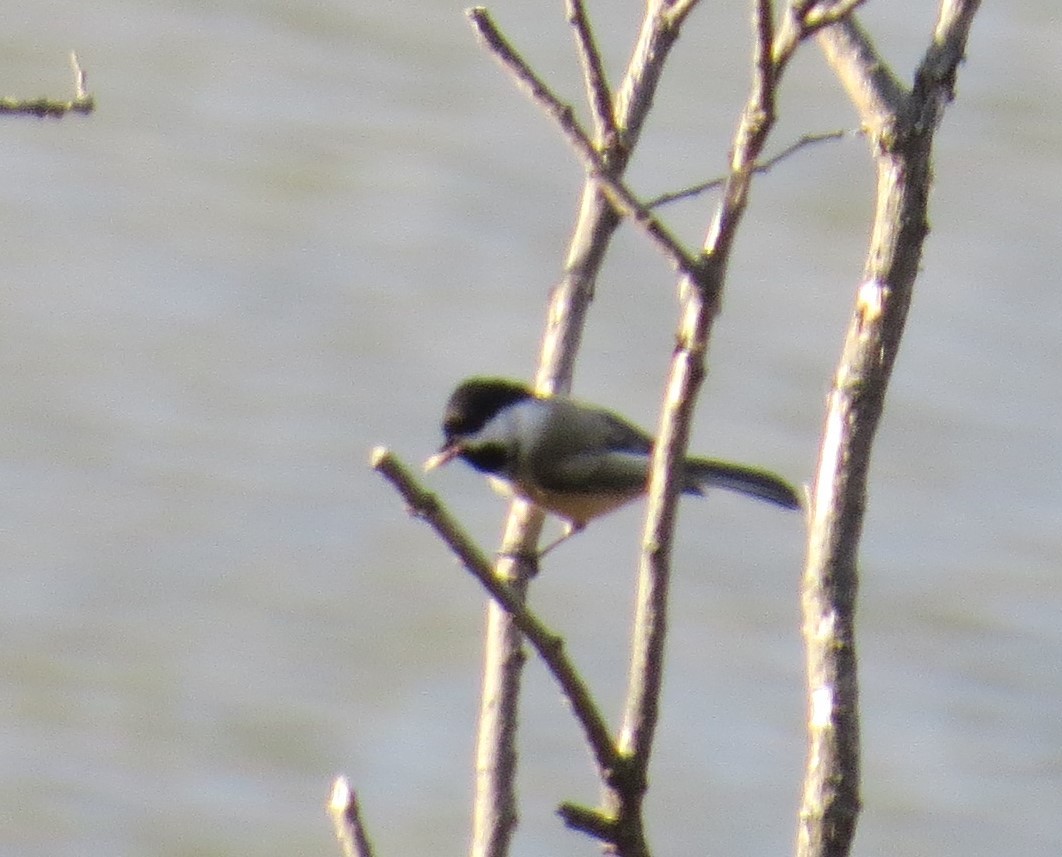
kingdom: Animalia
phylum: Chordata
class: Aves
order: Passeriformes
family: Paridae
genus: Poecile
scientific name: Poecile atricapillus
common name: Black-capped chickadee
